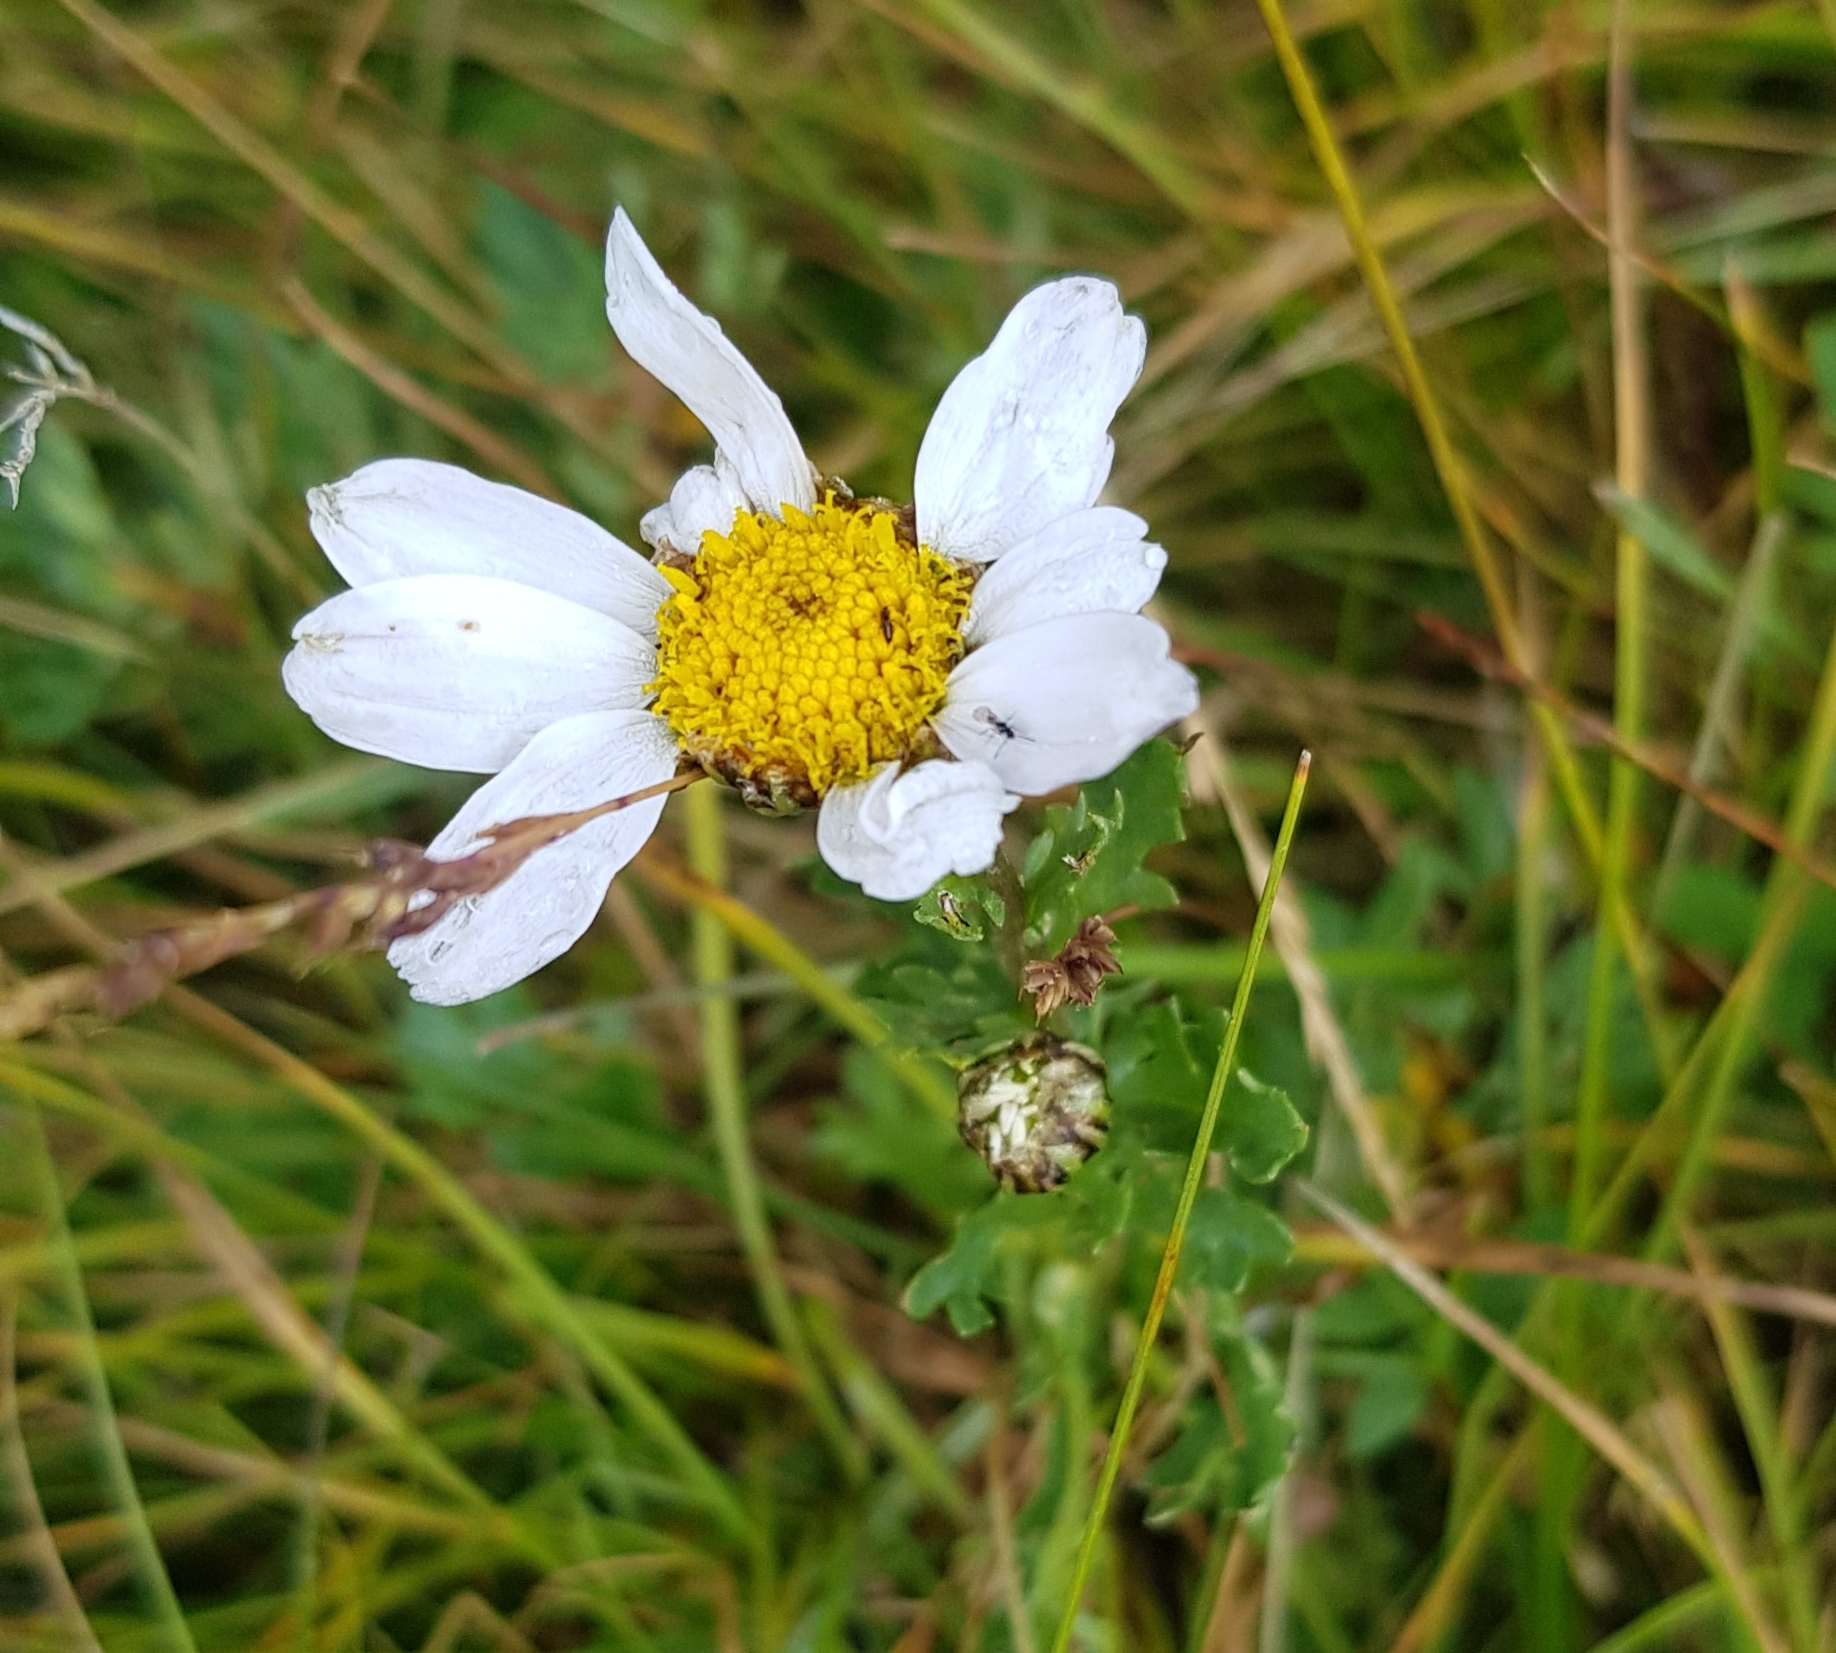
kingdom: Plantae
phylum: Tracheophyta
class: Magnoliopsida
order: Asterales
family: Asteraceae
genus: Chrysanthemum
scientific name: Chrysanthemum zawadzkii
